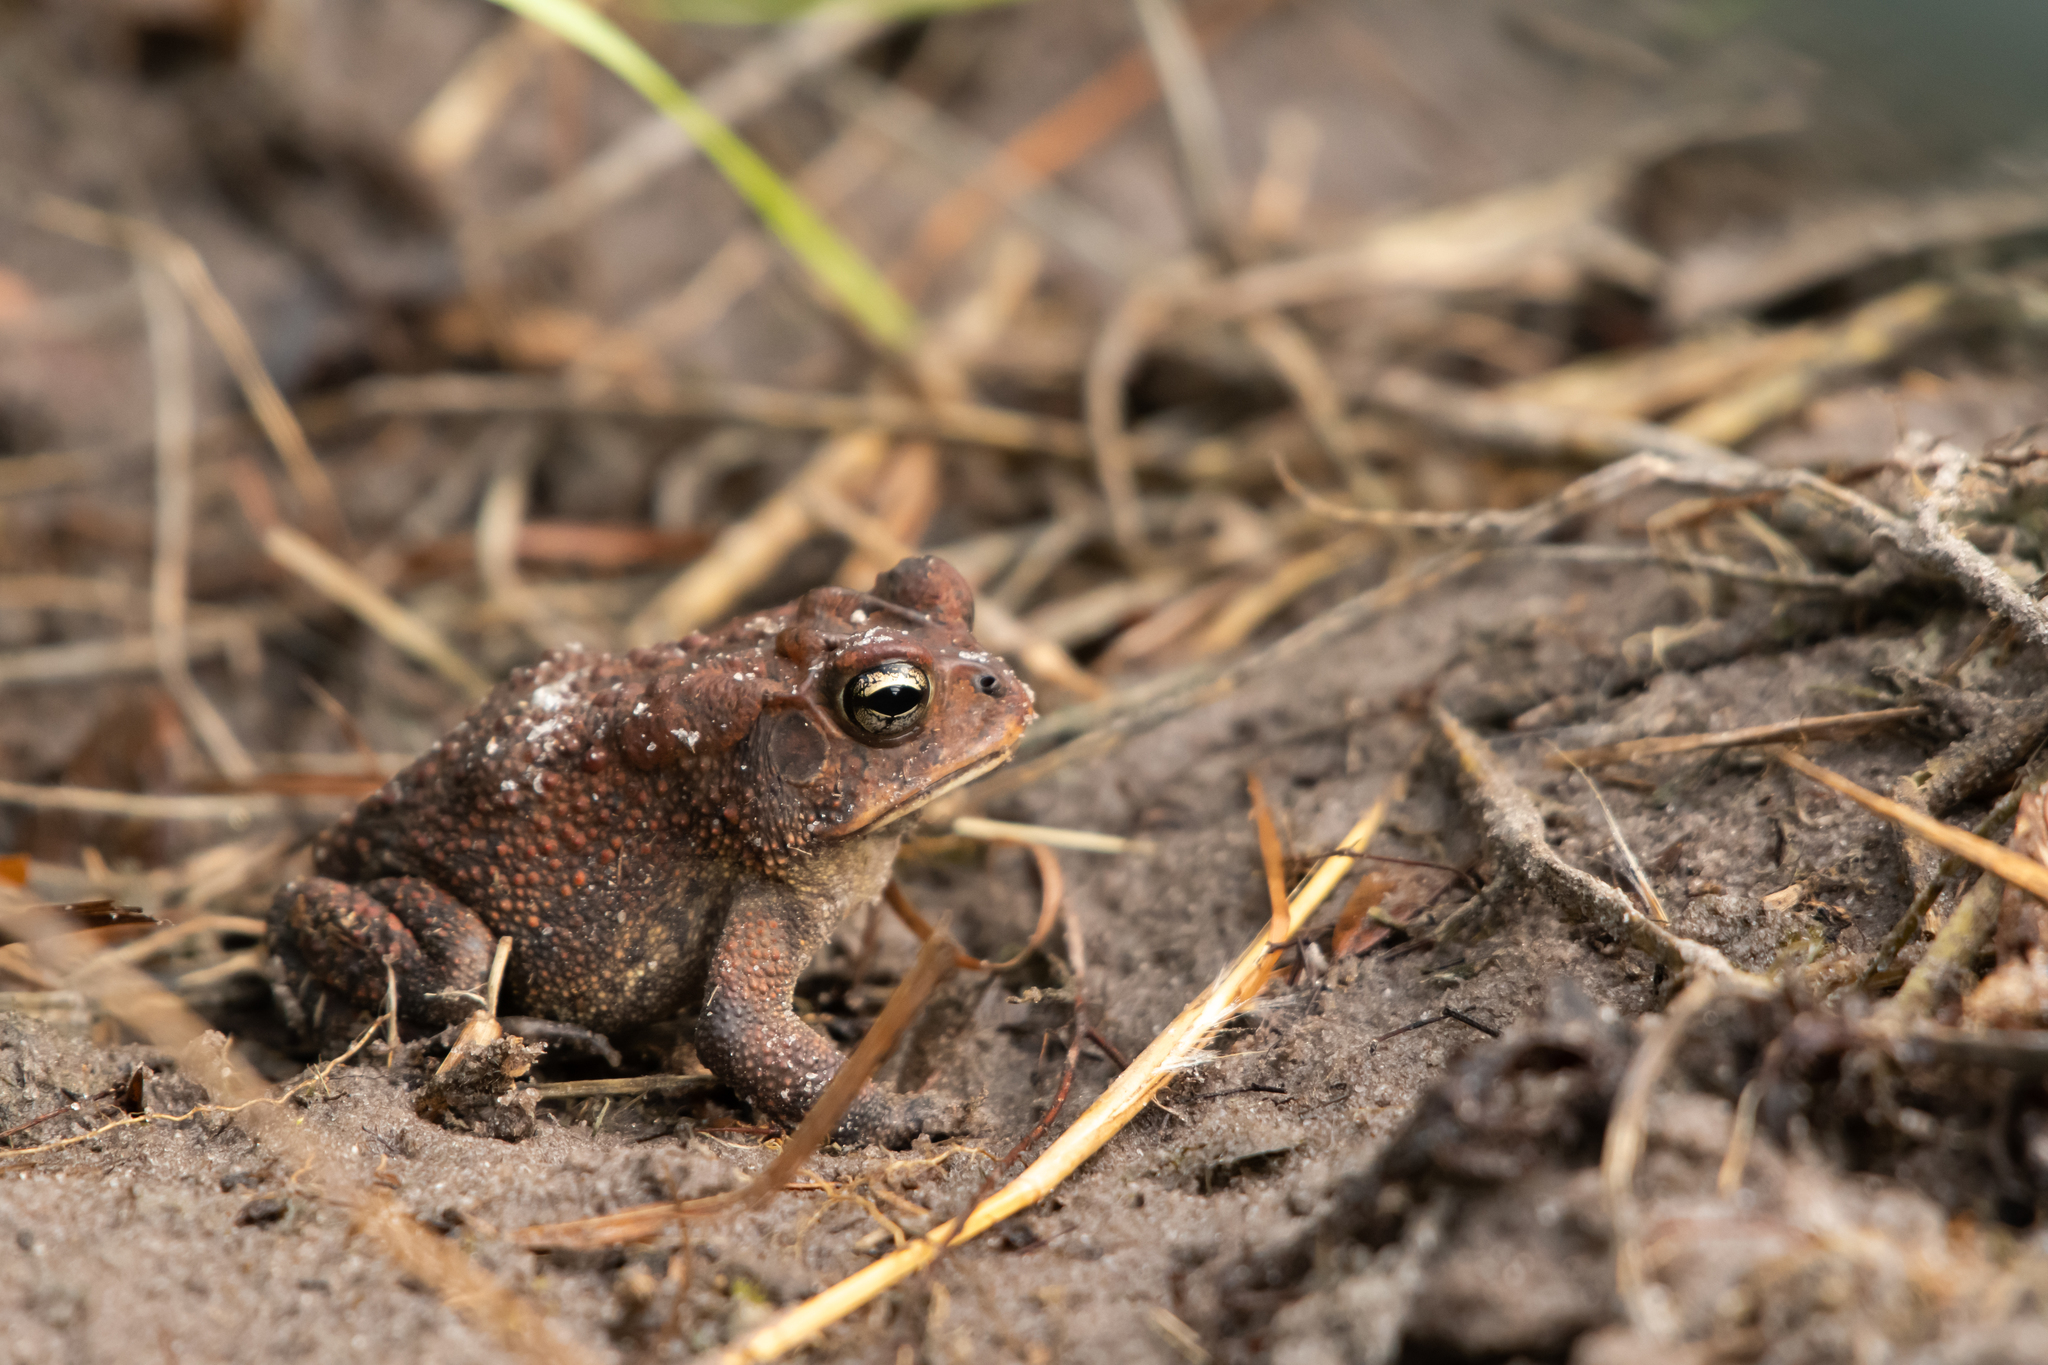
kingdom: Animalia
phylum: Chordata
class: Amphibia
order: Anura
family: Bufonidae
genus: Anaxyrus
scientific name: Anaxyrus terrestris
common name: Southern toad
